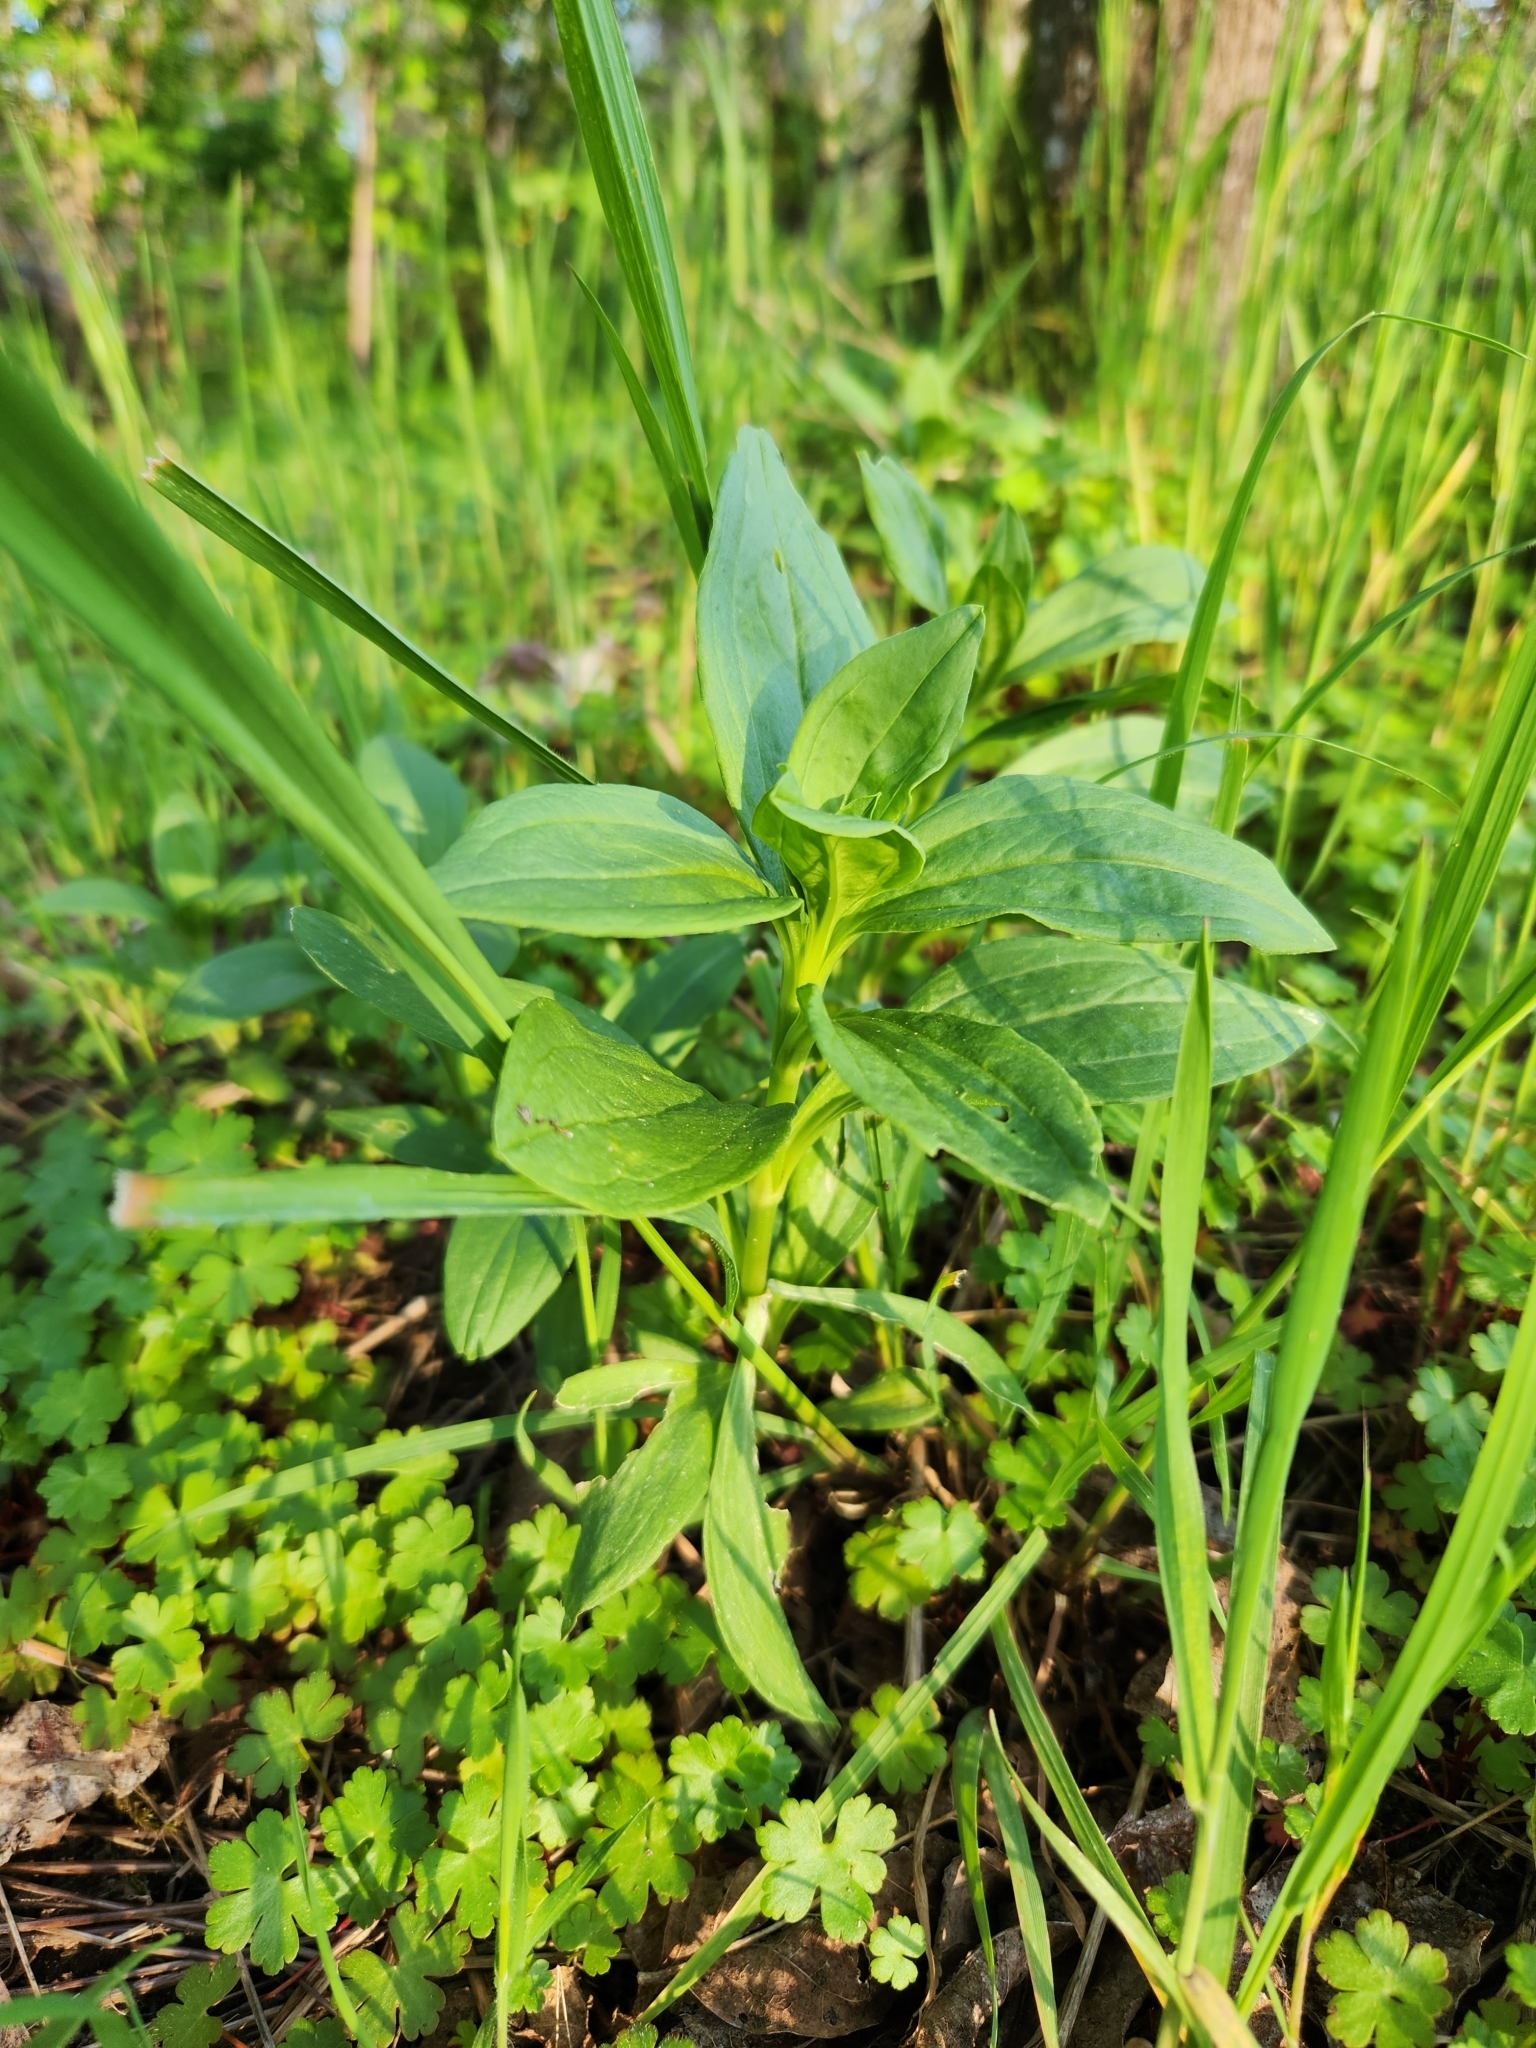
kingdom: Plantae
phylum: Tracheophyta
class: Magnoliopsida
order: Caryophyllales
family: Caryophyllaceae
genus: Saponaria
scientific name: Saponaria officinalis
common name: Soapwort
